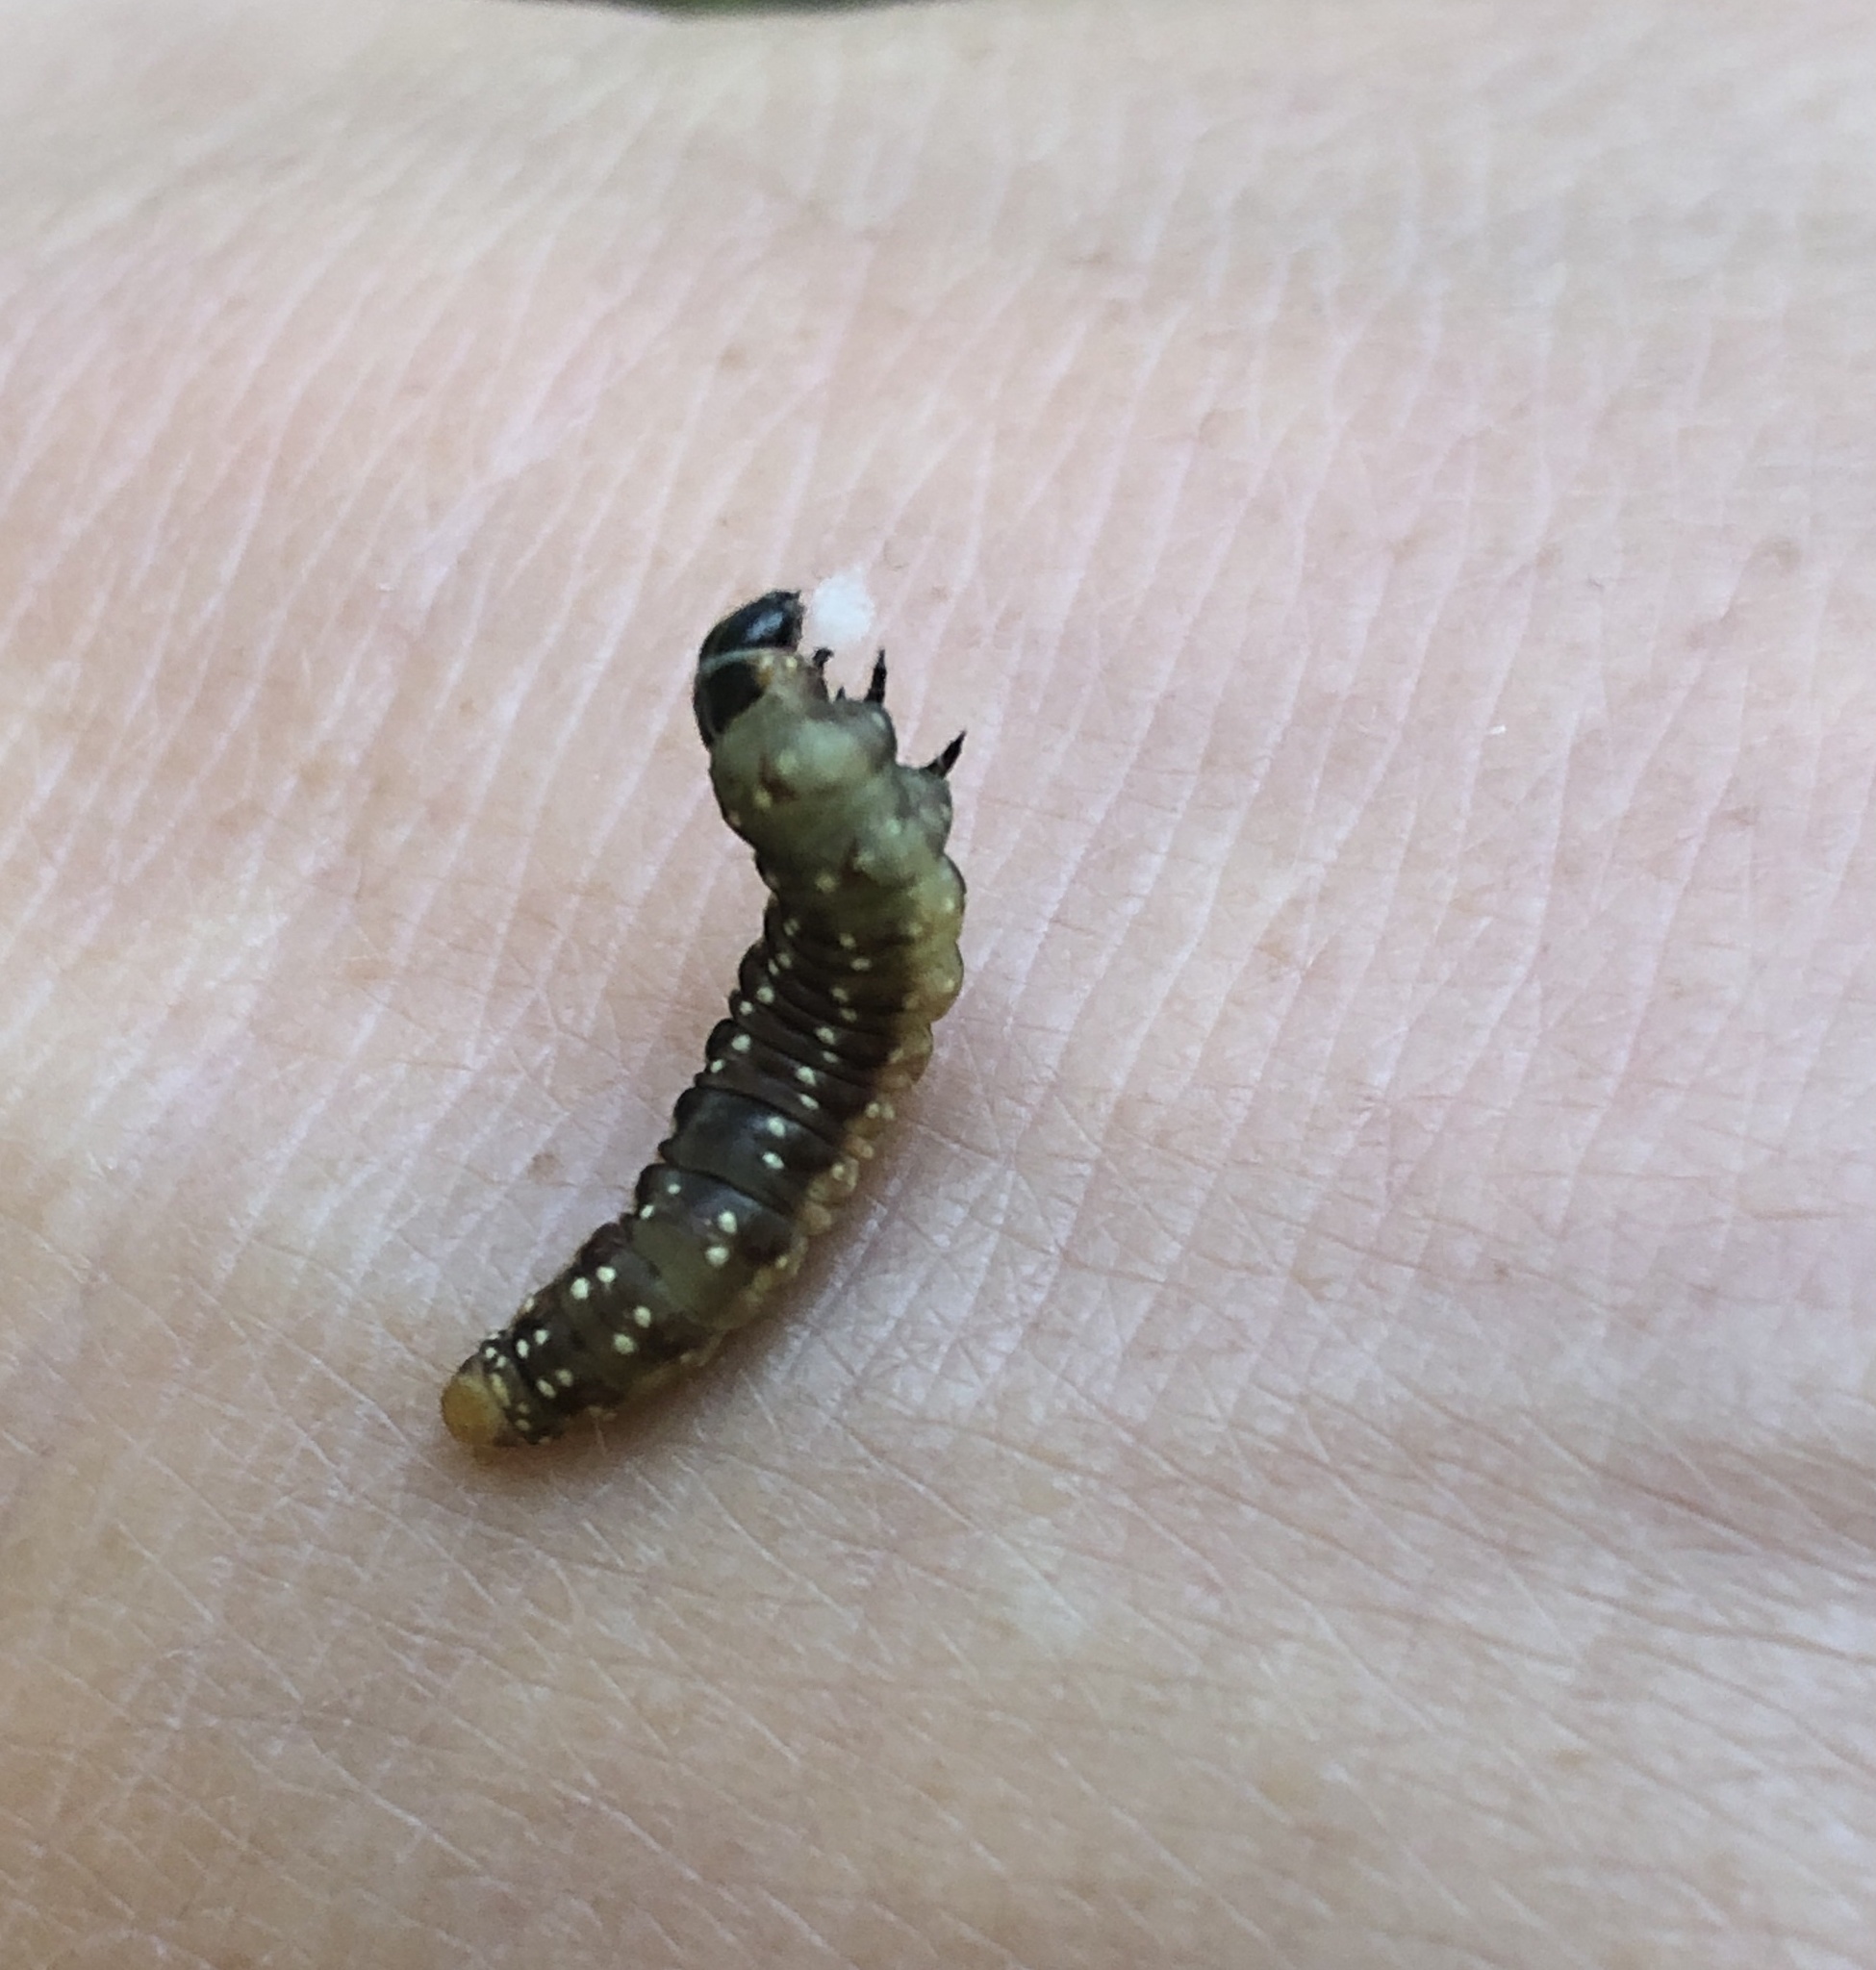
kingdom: Animalia
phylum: Arthropoda
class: Insecta
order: Lepidoptera
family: Tortricidae
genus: Choristoneura
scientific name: Choristoneura fumiferana
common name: Spruce budworm
